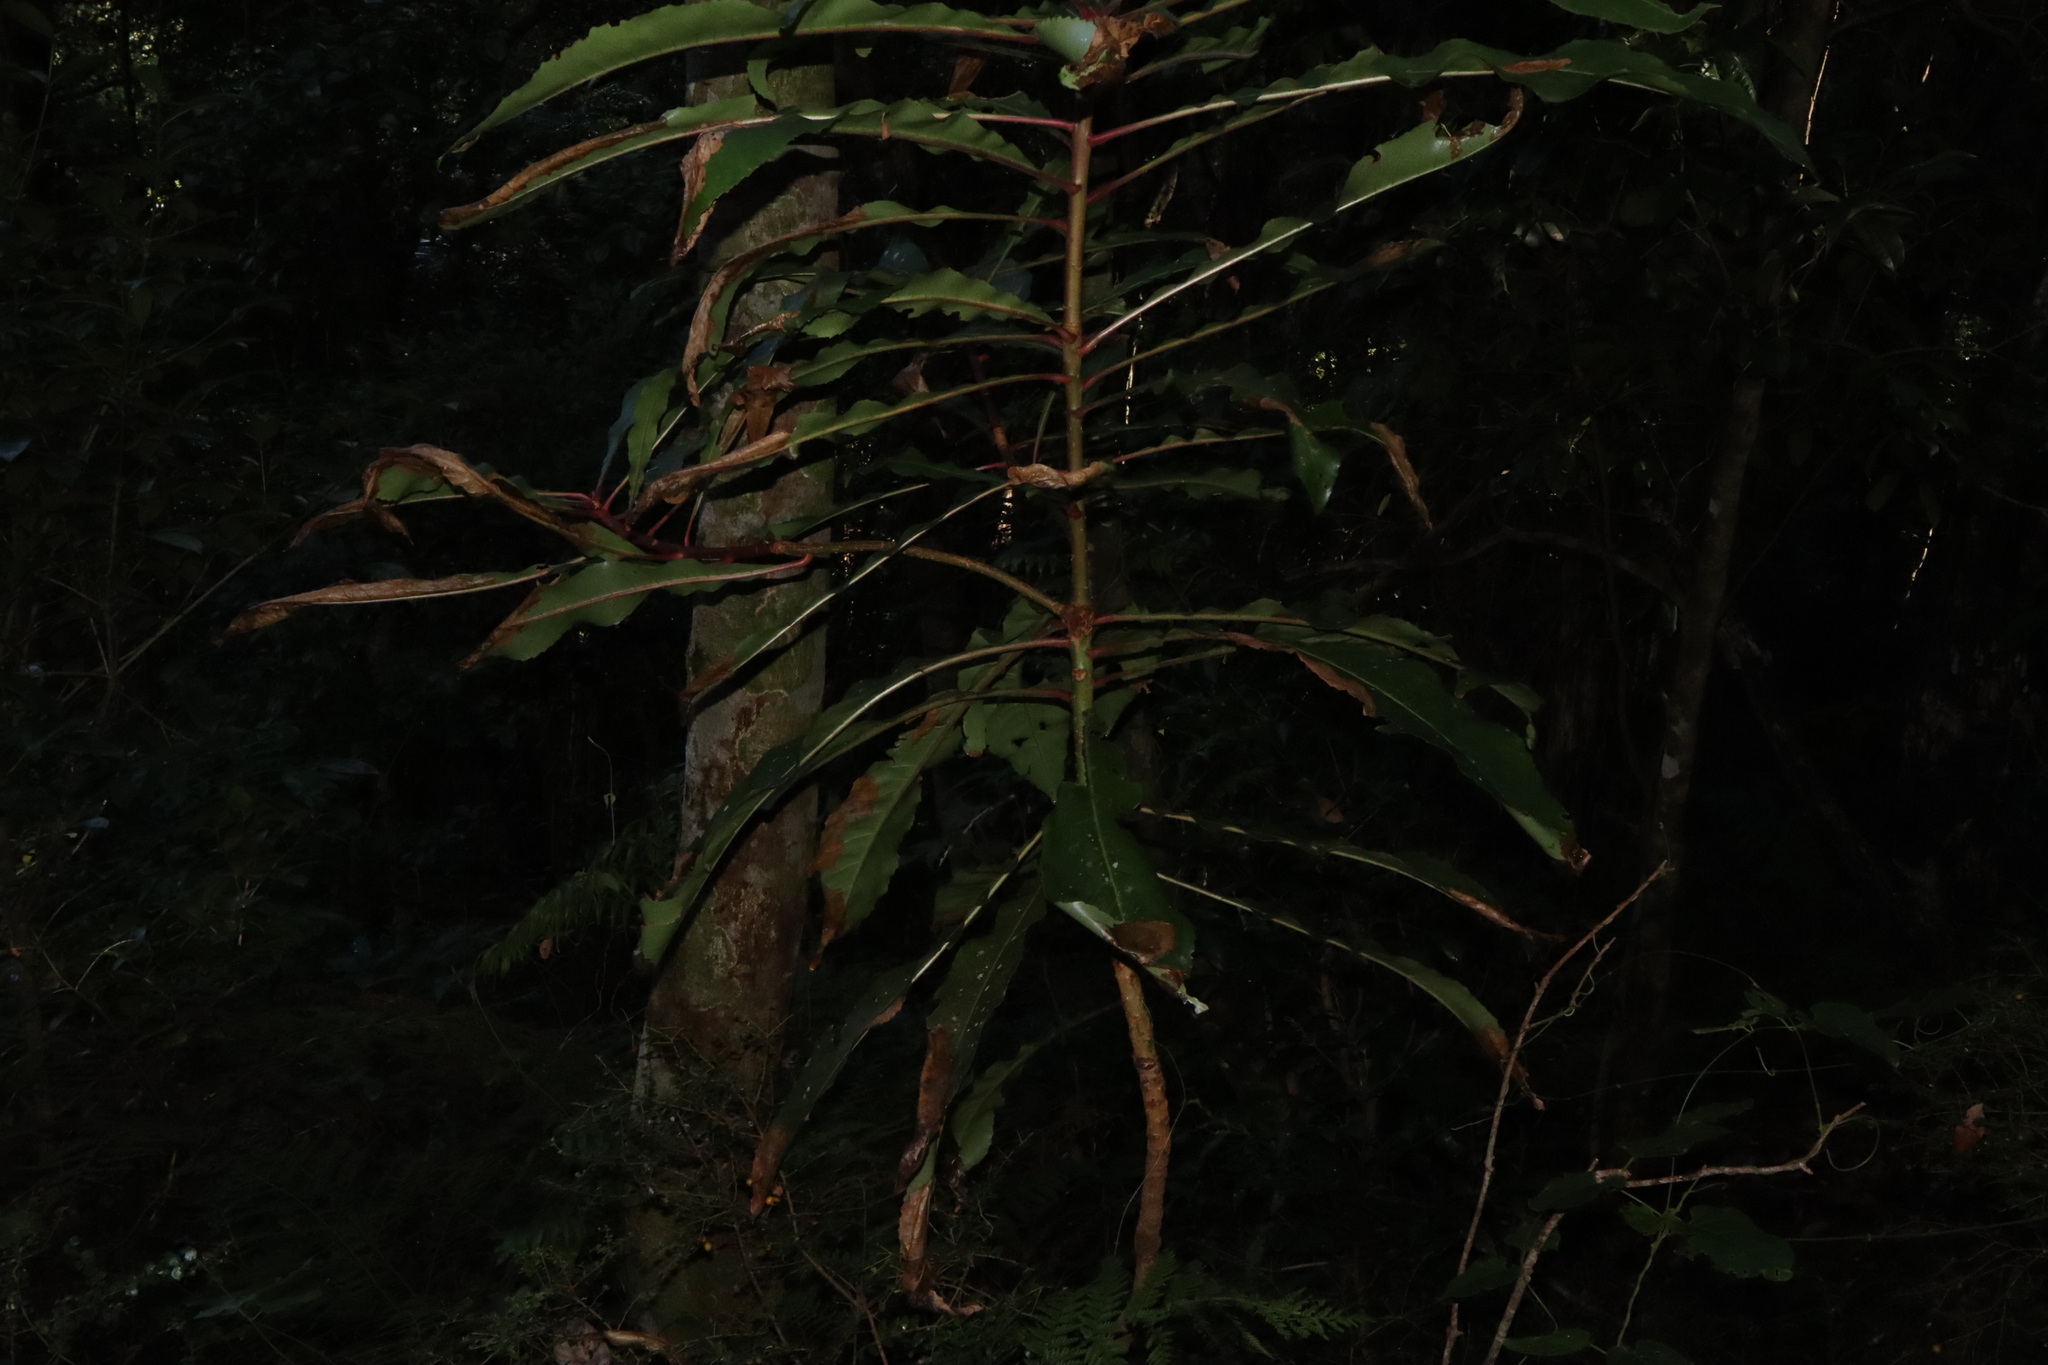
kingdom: Plantae
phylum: Tracheophyta
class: Magnoliopsida
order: Escalloniales
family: Escalloniaceae
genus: Anopterus
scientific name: Anopterus macleayanus
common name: Tasmanian-laurel
